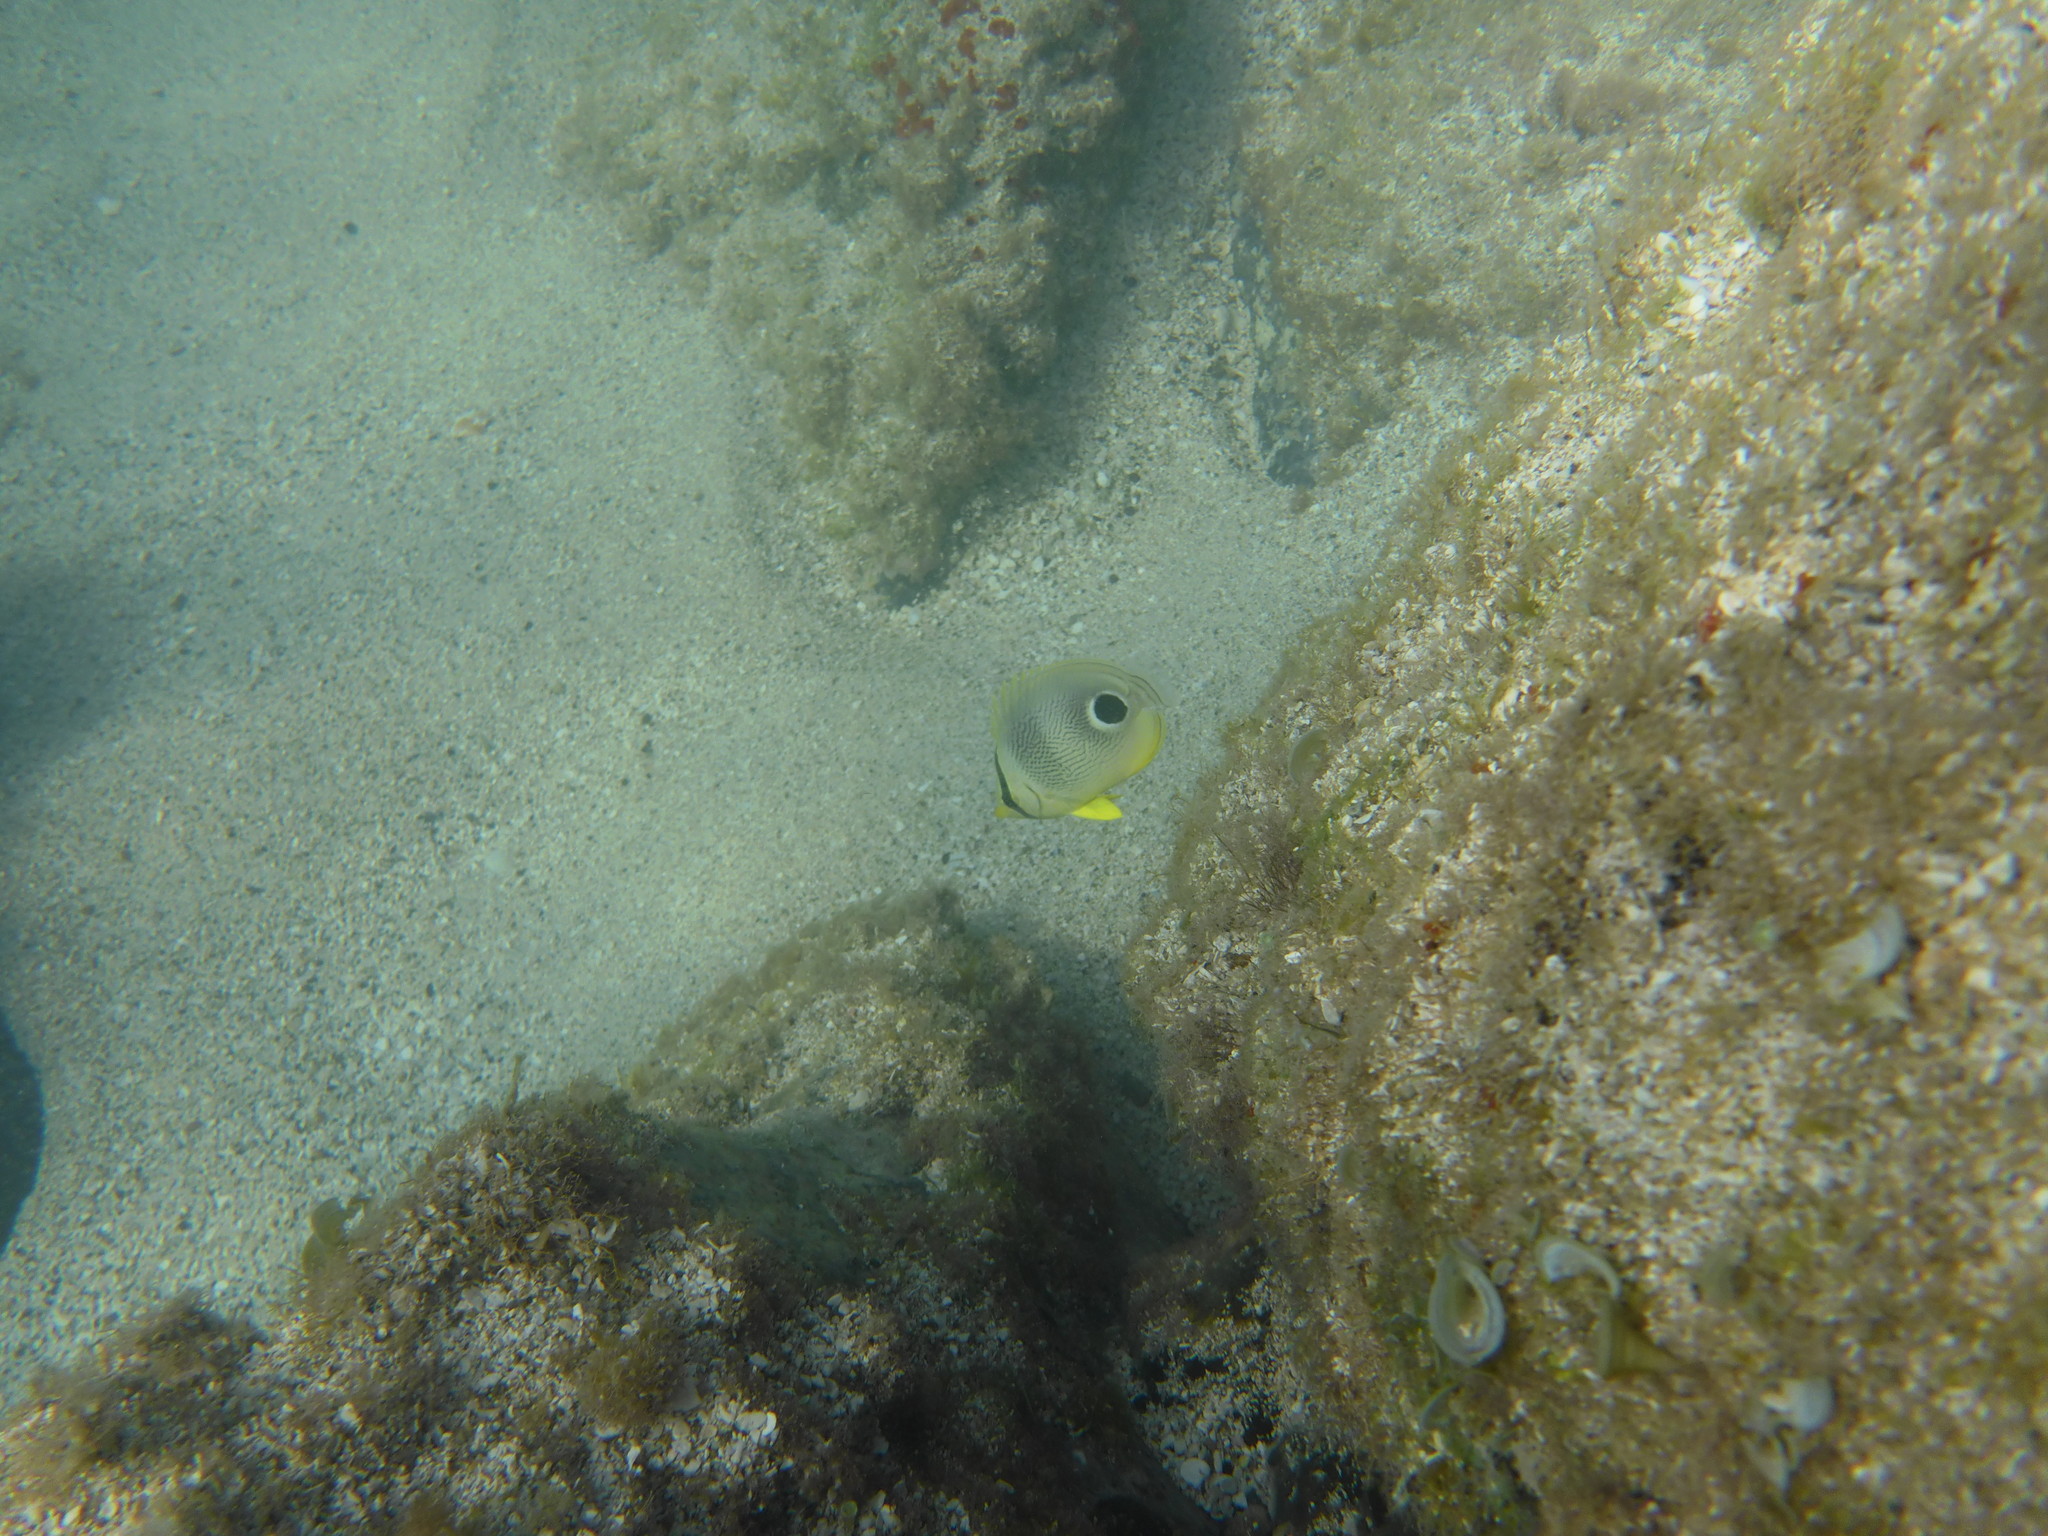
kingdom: Animalia
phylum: Chordata
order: Perciformes
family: Chaetodontidae
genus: Chaetodon
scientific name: Chaetodon capistratus
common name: Kete
